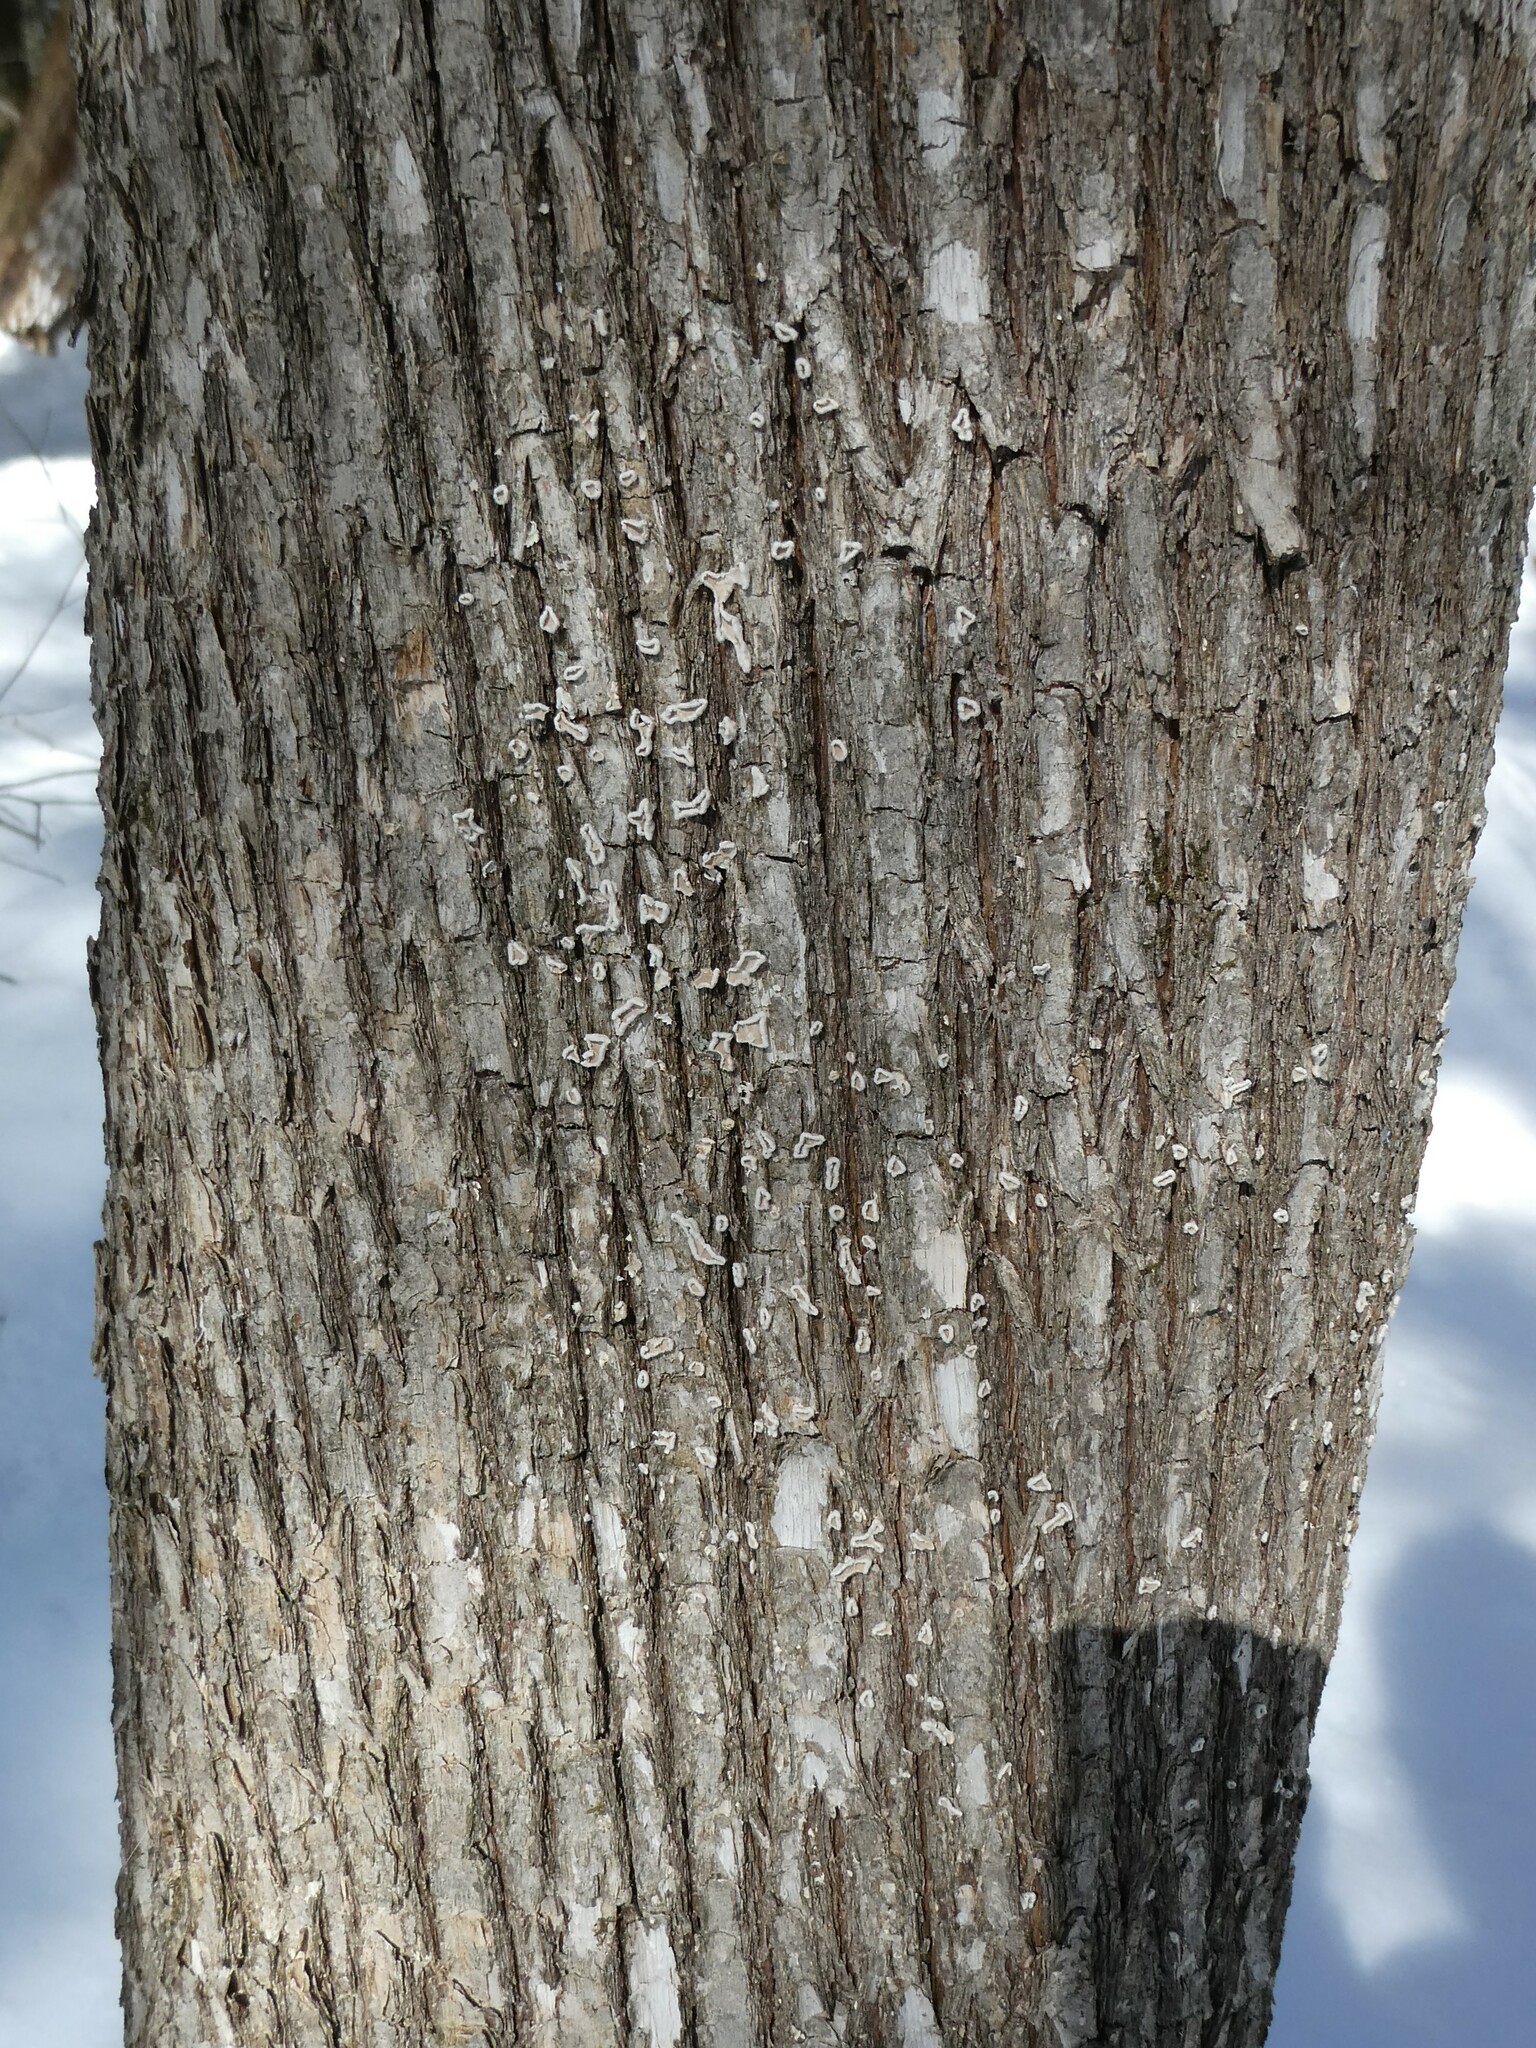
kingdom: Fungi
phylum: Basidiomycota
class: Agaricomycetes
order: Russulales
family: Stereaceae
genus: Acanthophysium
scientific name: Acanthophysium oakesii
